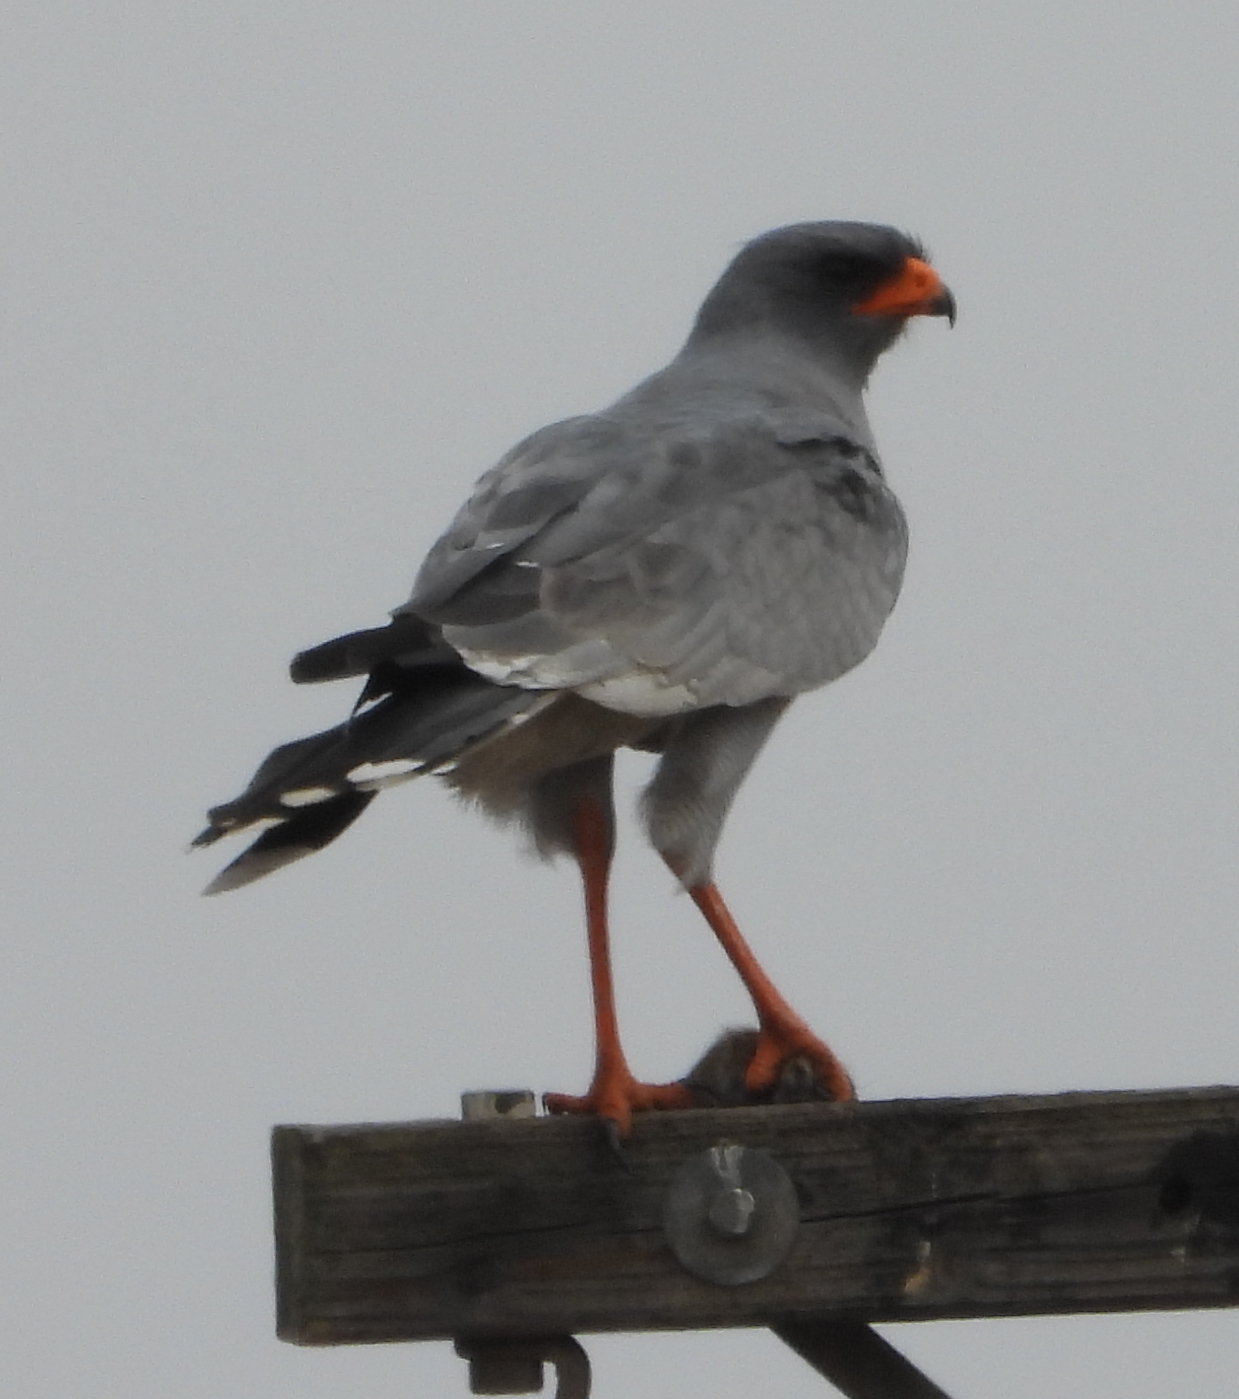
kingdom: Animalia
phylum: Chordata
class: Aves
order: Accipitriformes
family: Accipitridae
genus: Melierax
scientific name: Melierax canorus
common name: Pale chanting-goshawk
